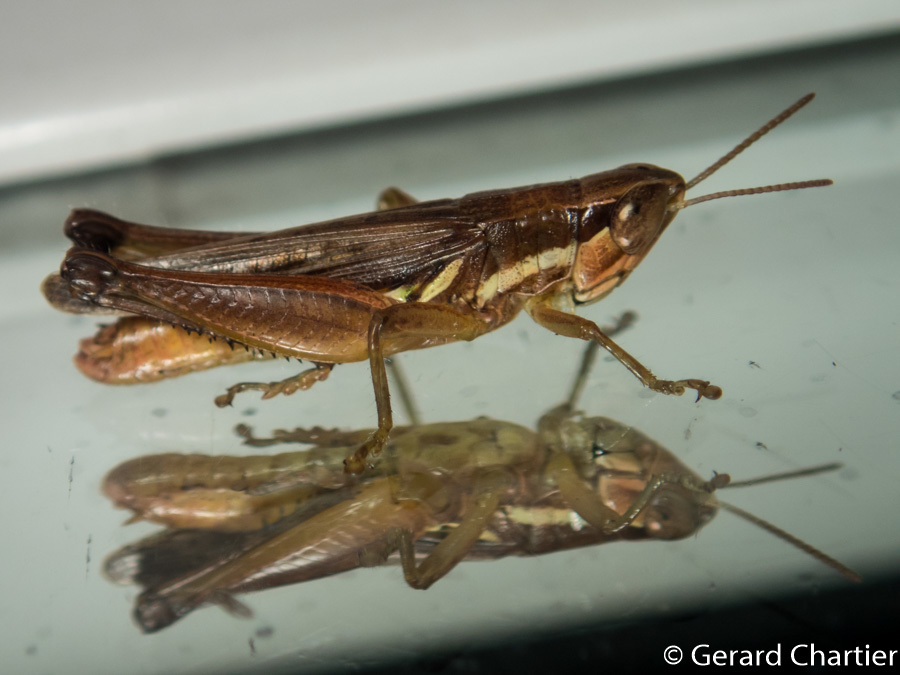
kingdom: Animalia
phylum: Arthropoda
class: Insecta
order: Orthoptera
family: Acrididae
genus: Spathosternum
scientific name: Spathosternum prasiniferum
